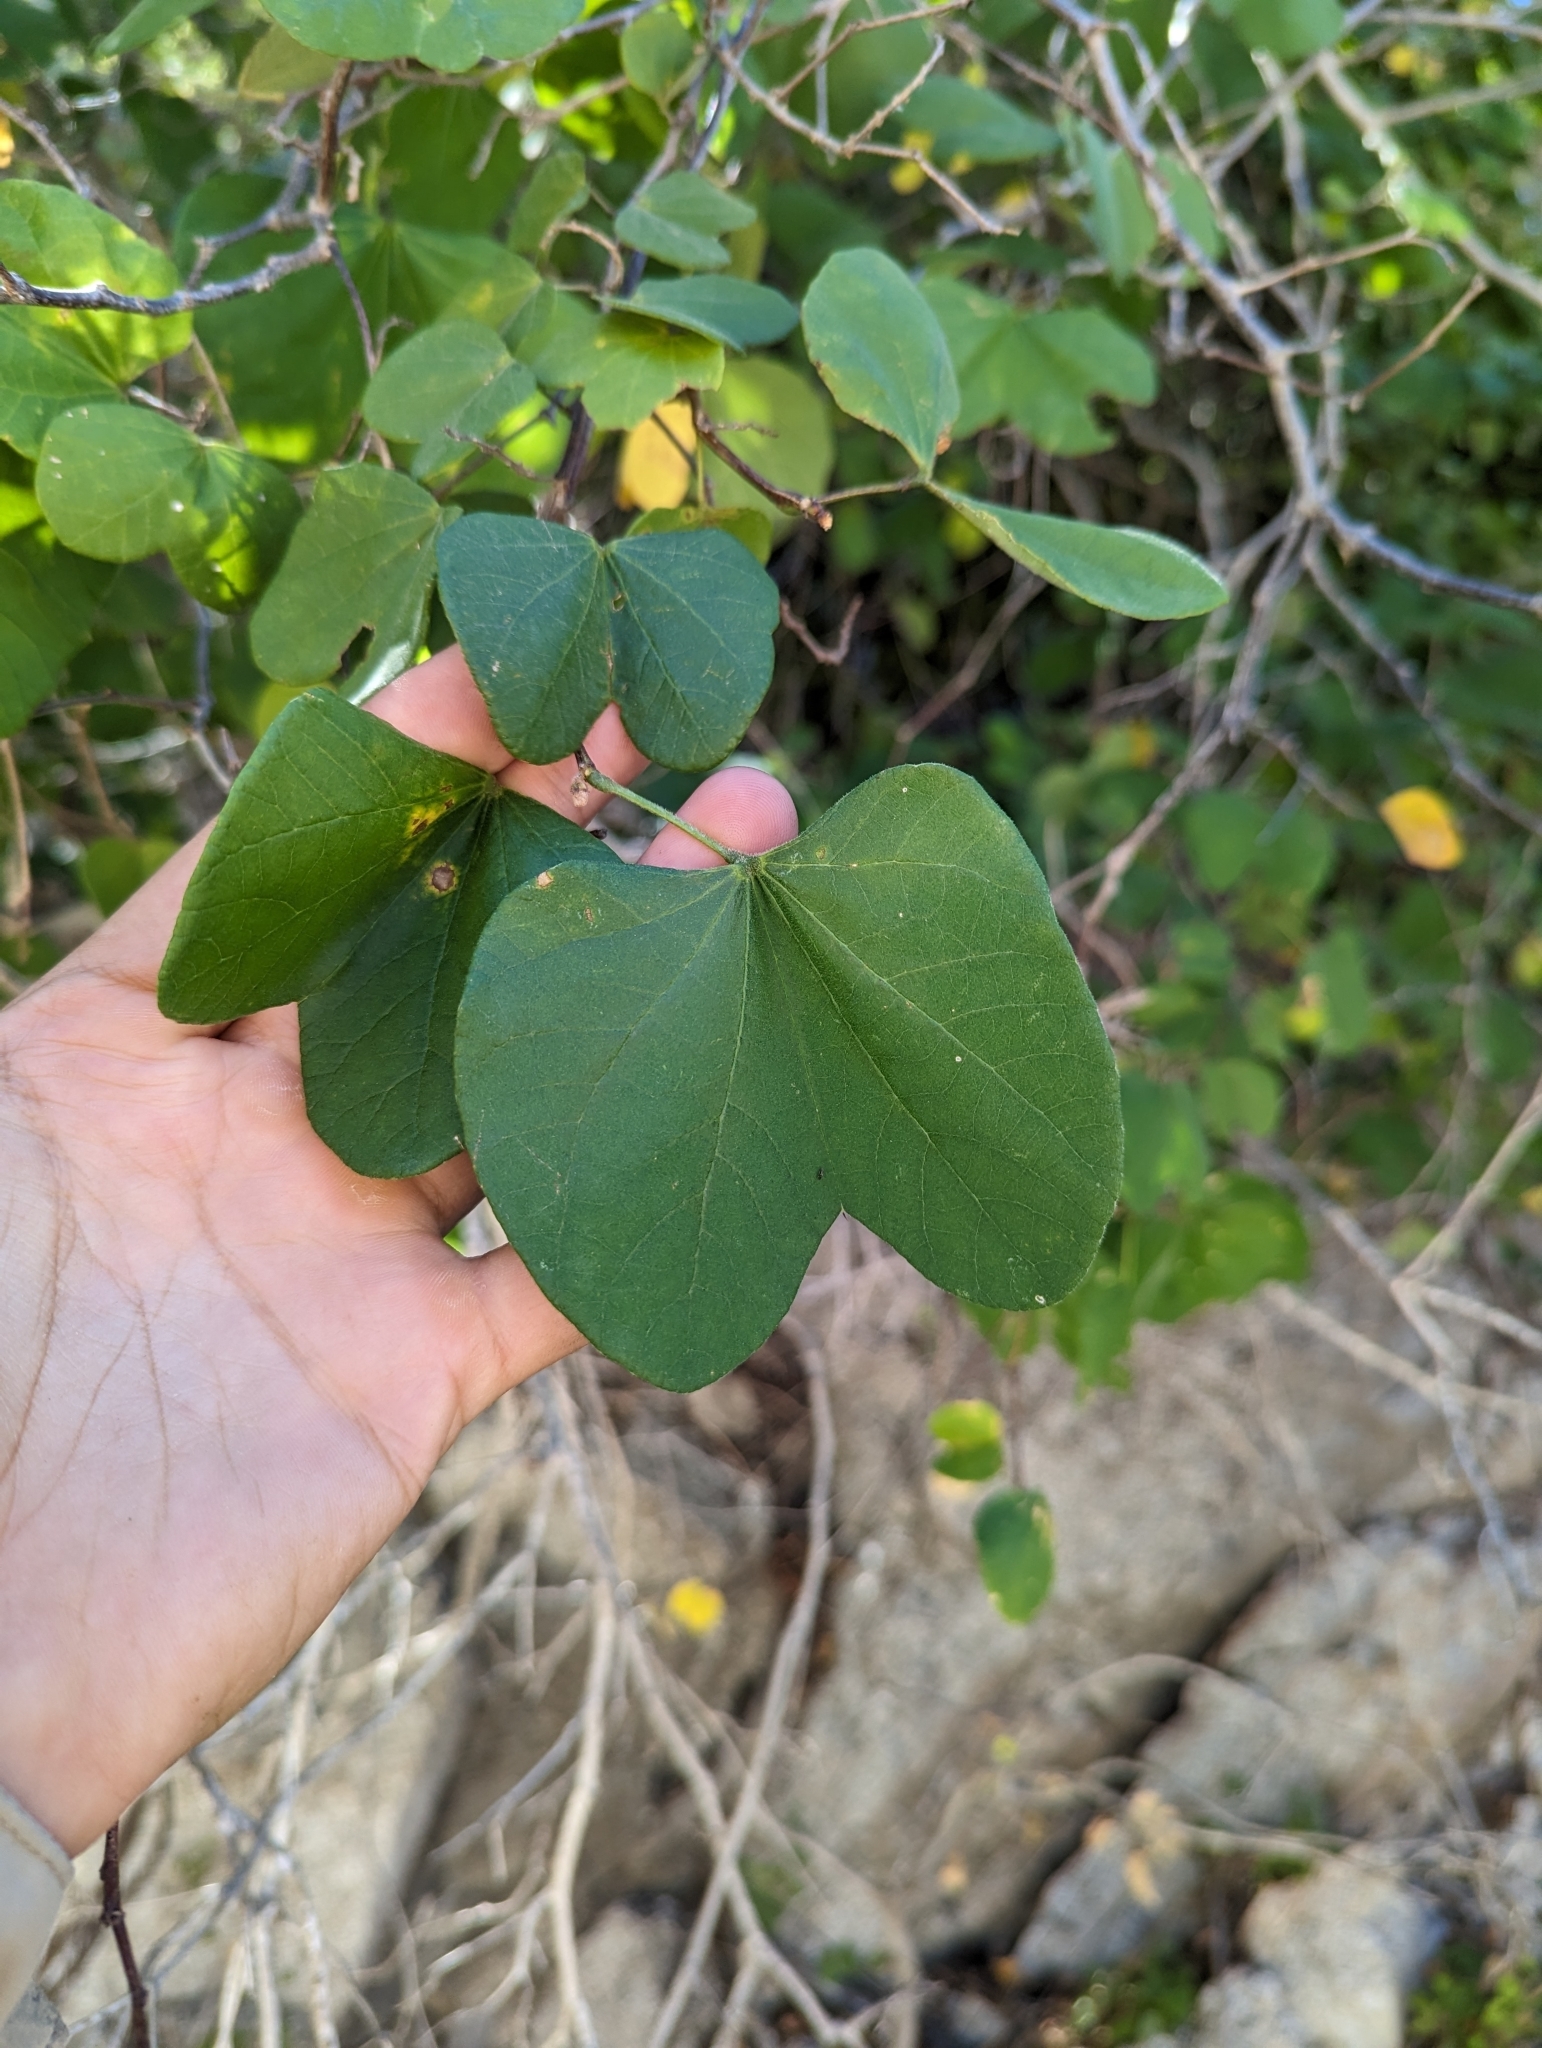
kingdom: Plantae
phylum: Tracheophyta
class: Magnoliopsida
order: Fabales
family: Fabaceae
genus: Bauhinia
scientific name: Bauhinia divaricata
